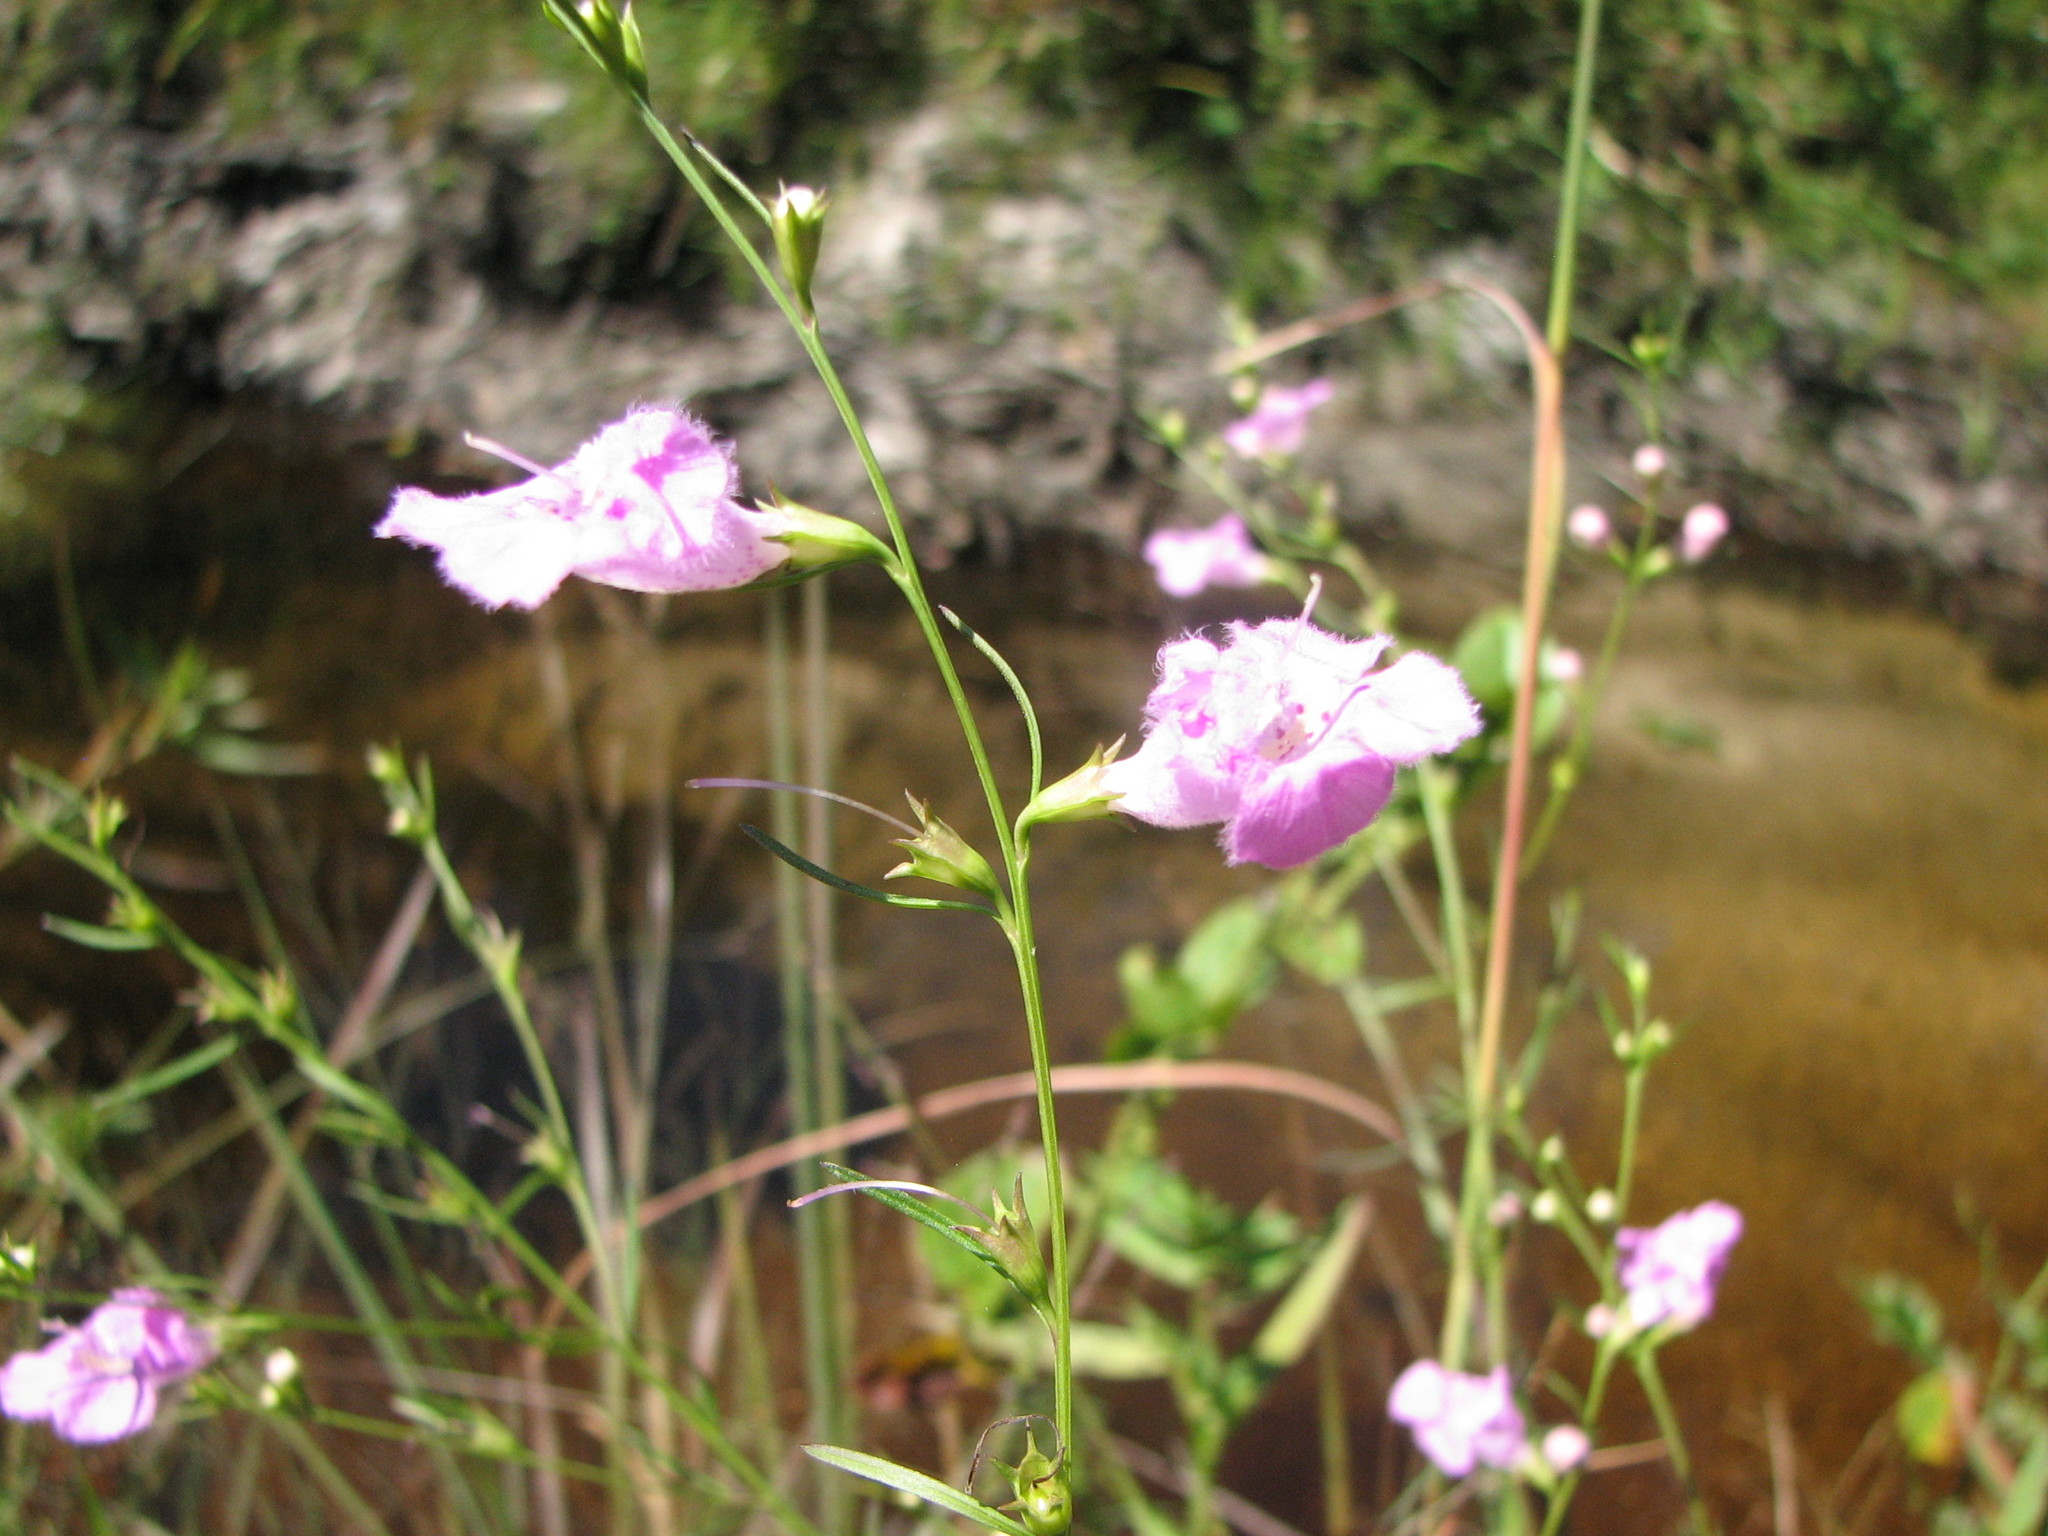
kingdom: Plantae
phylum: Tracheophyta
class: Magnoliopsida
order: Lamiales
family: Orobanchaceae
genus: Agalinis
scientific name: Agalinis purpurea
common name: Purple false foxglove
